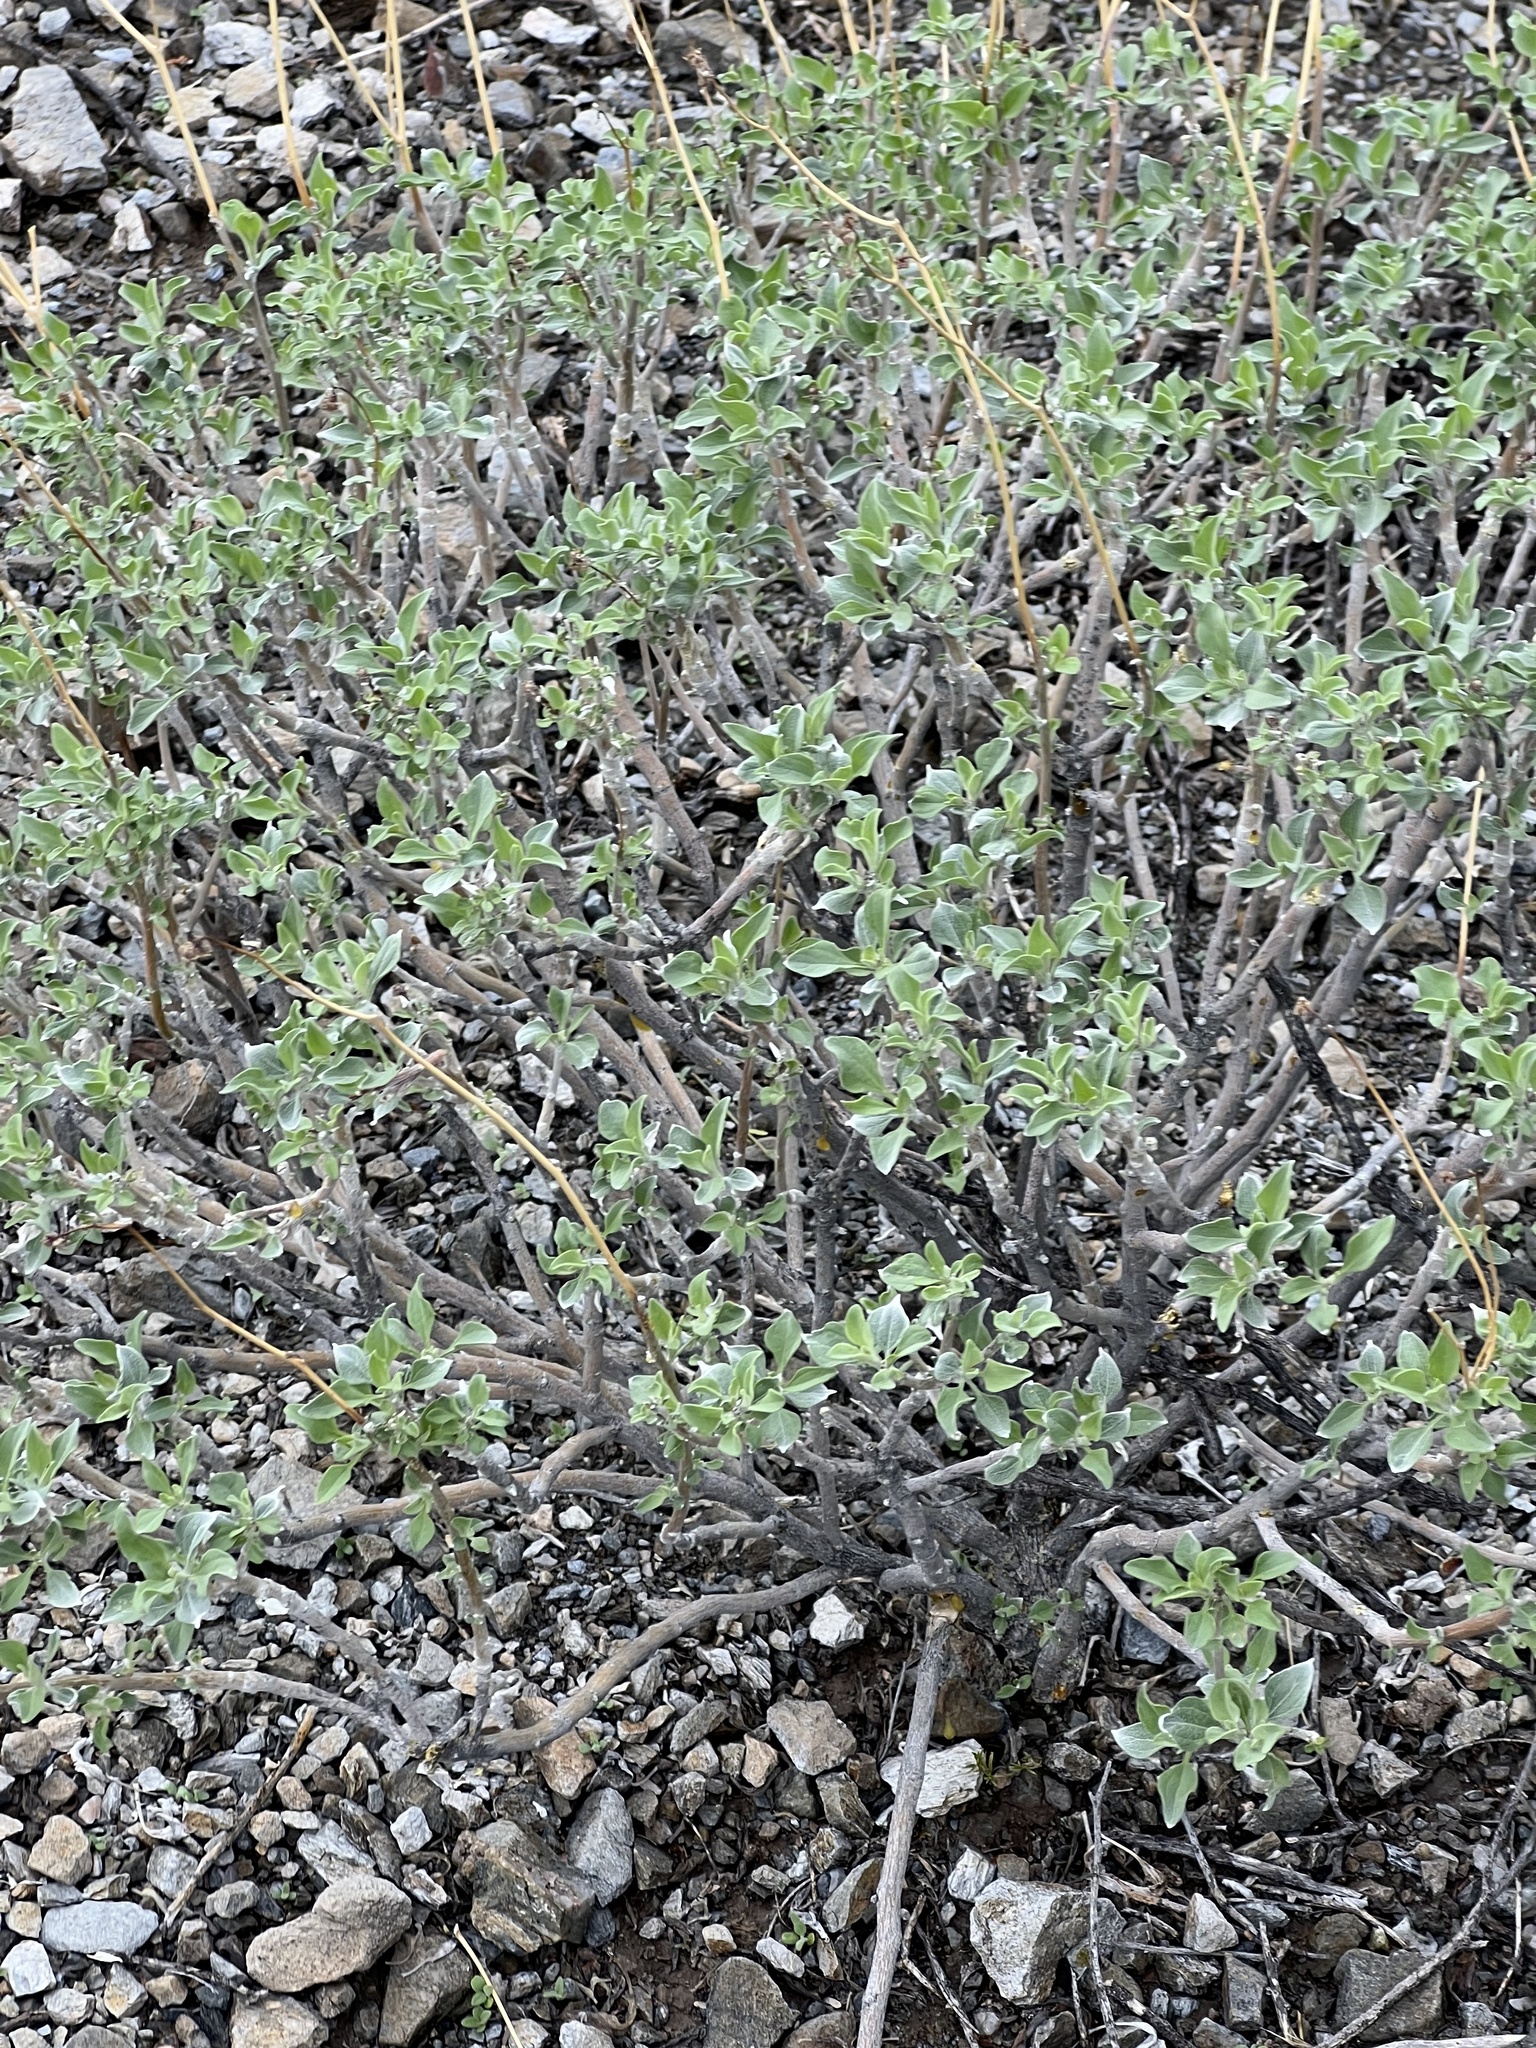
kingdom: Plantae
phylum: Tracheophyta
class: Magnoliopsida
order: Asterales
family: Asteraceae
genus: Encelia
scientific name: Encelia farinosa
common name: Brittlebush
